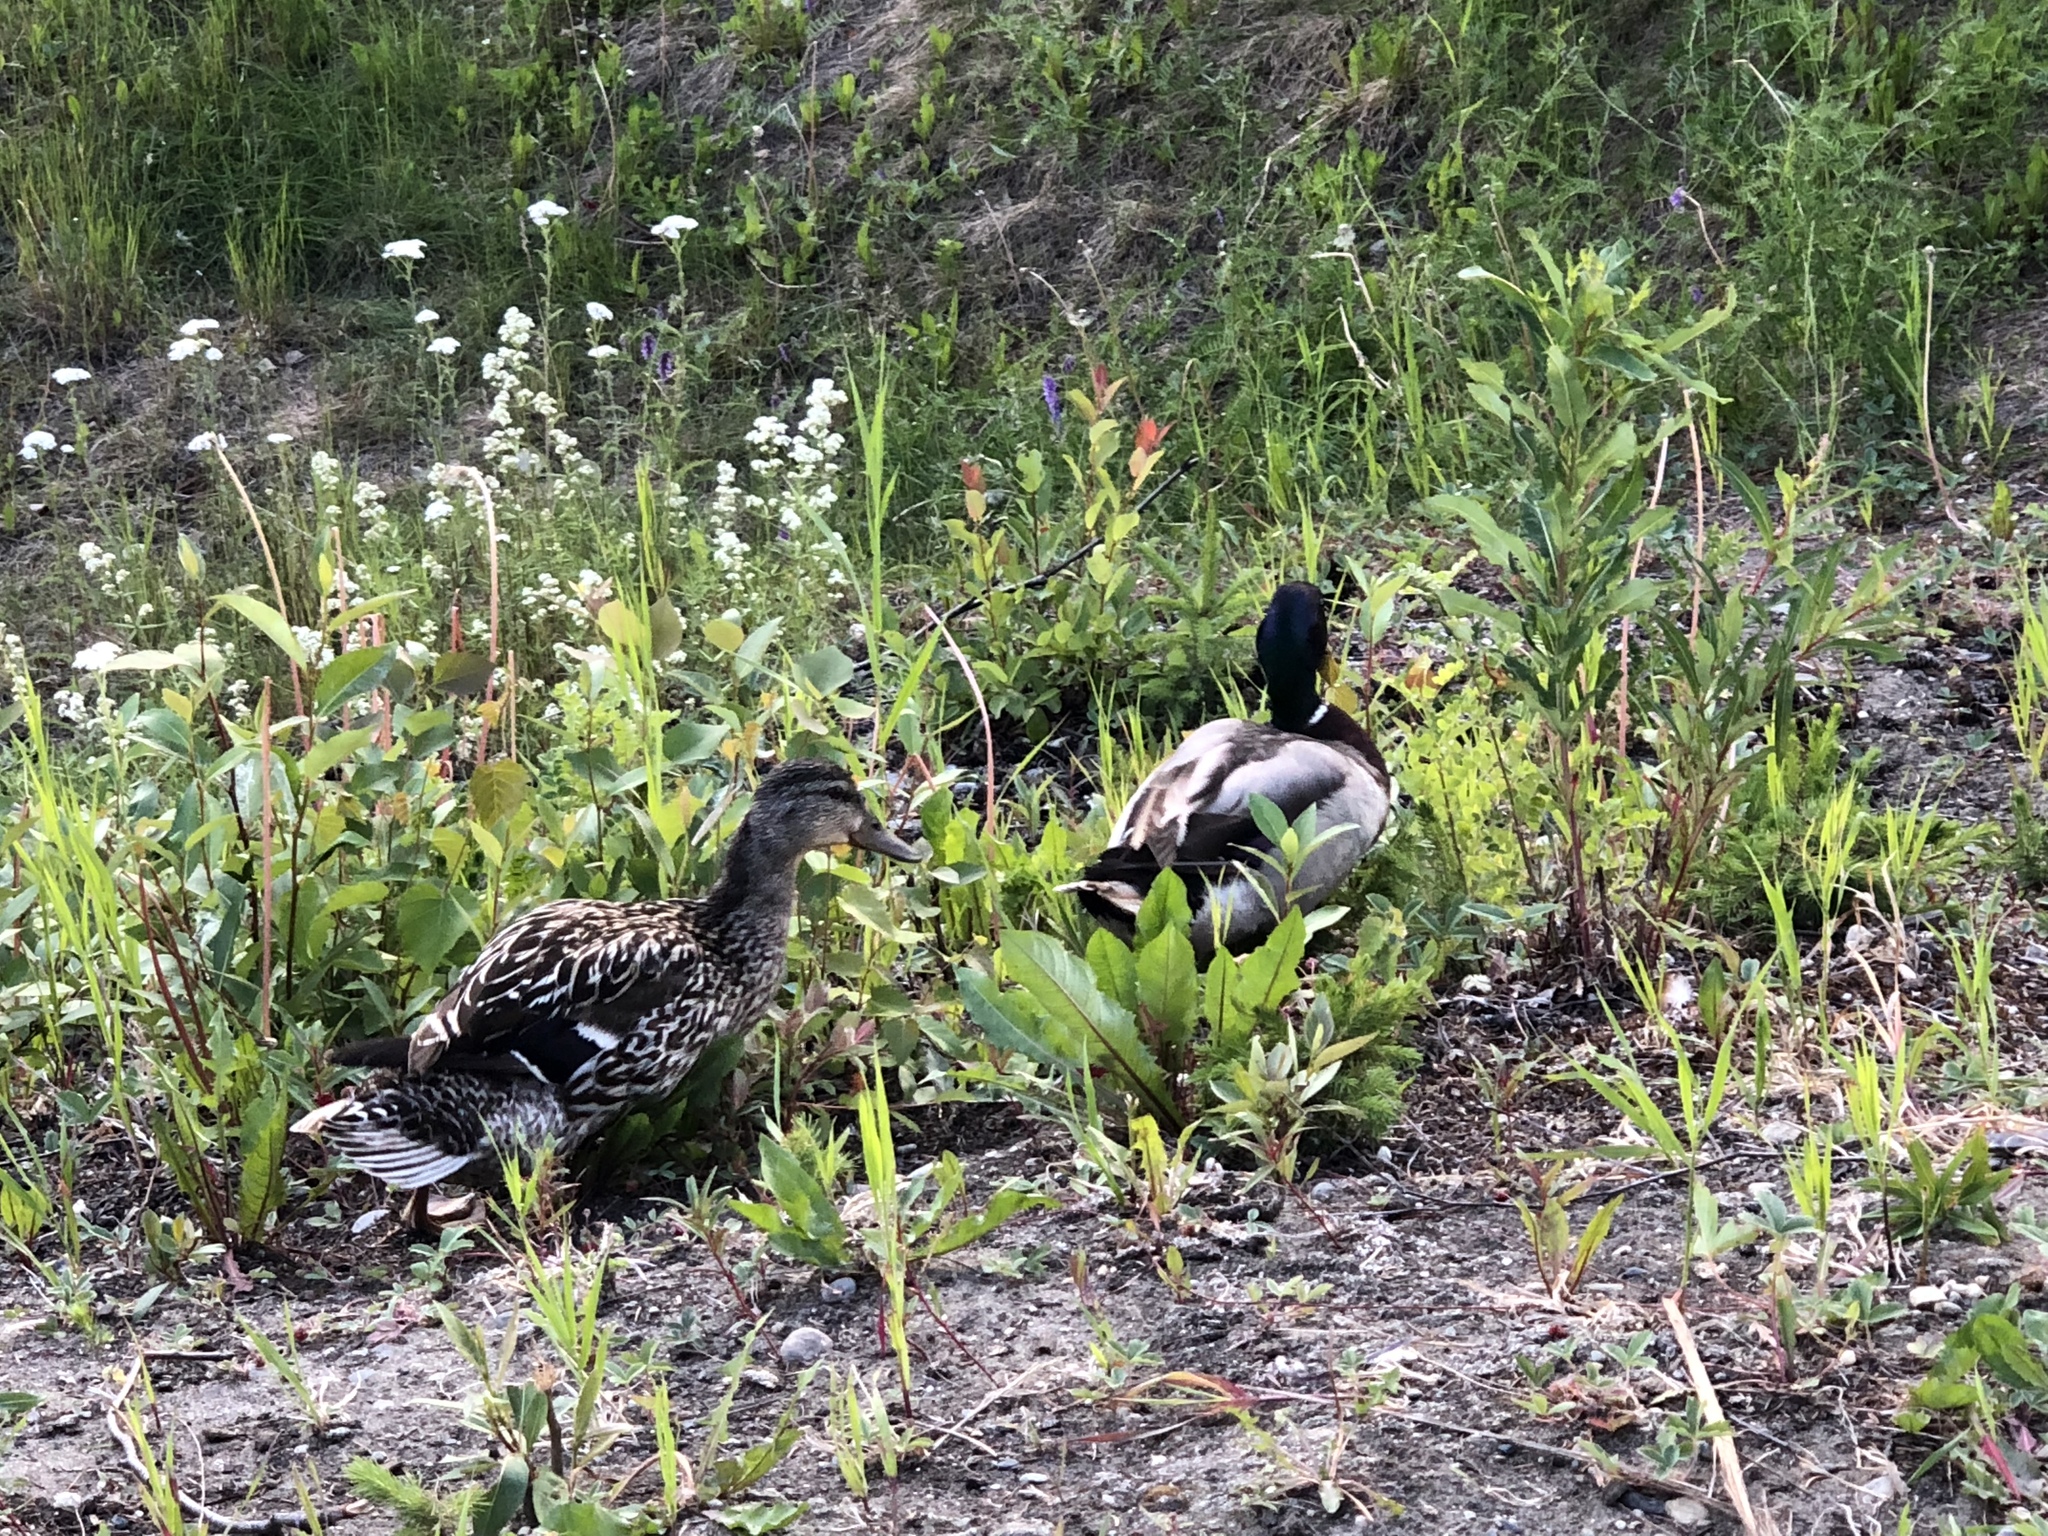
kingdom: Animalia
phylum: Chordata
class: Aves
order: Anseriformes
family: Anatidae
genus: Anas
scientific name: Anas platyrhynchos
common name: Mallard
